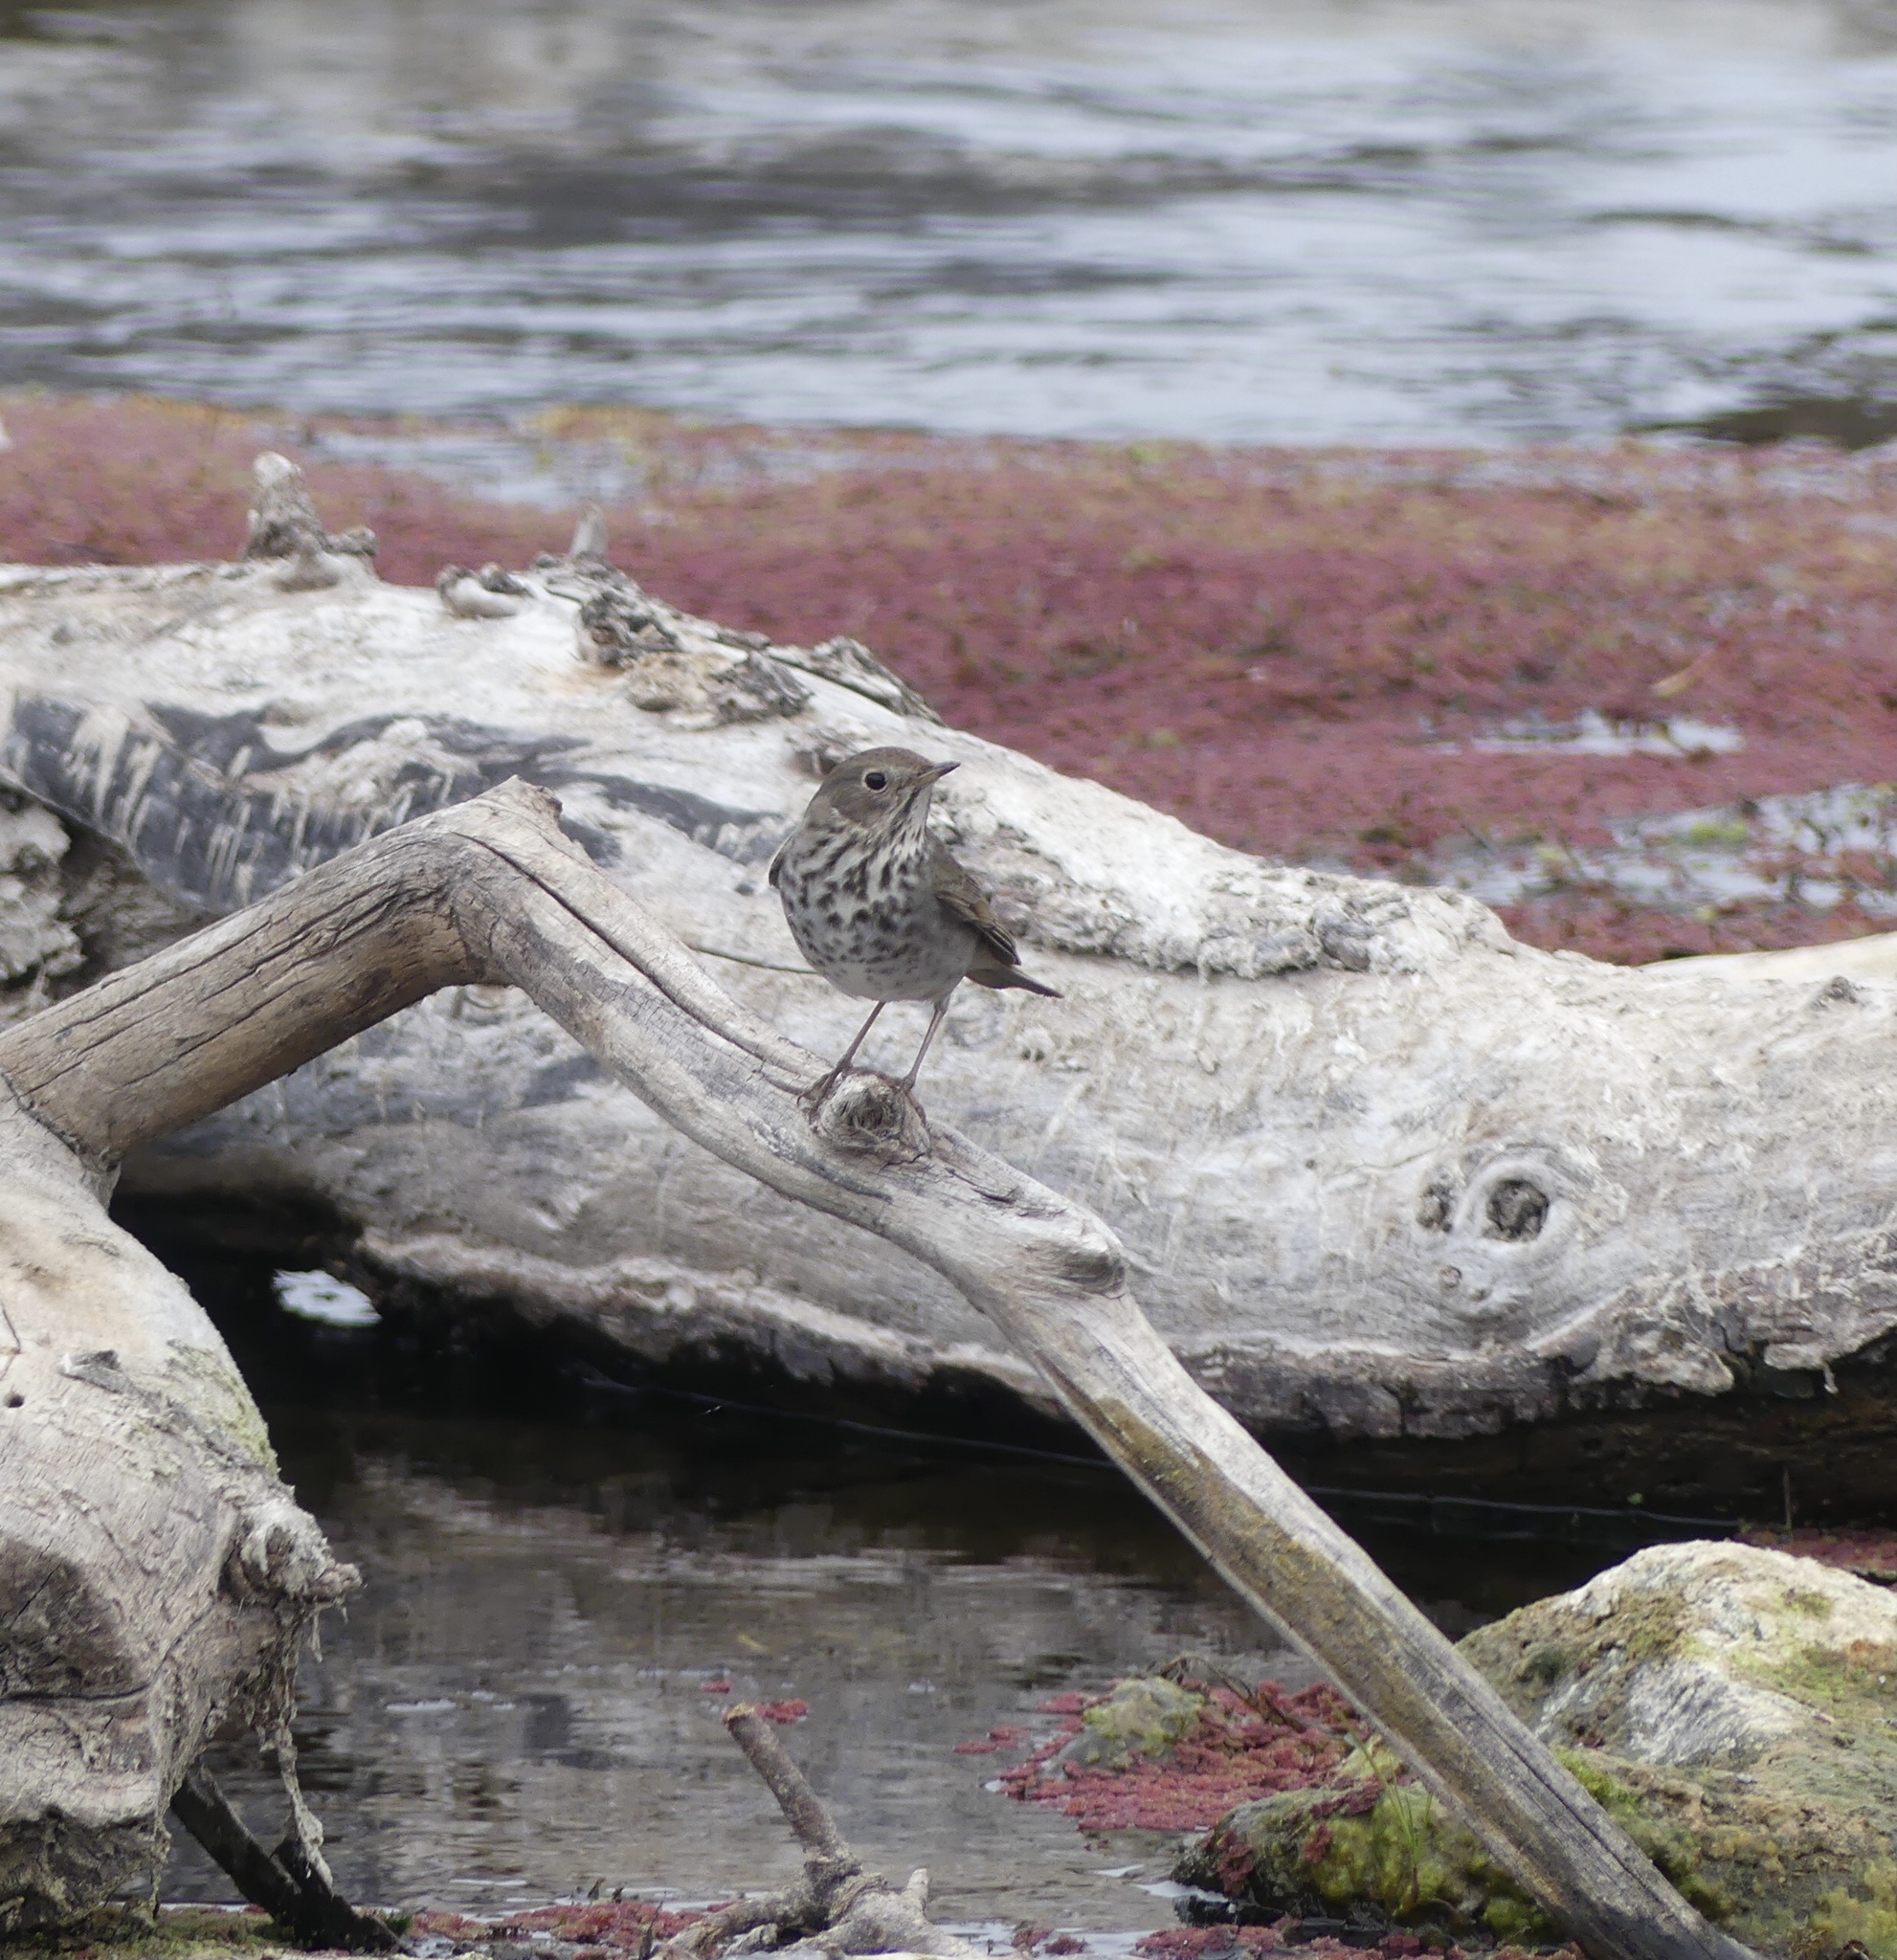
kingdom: Animalia
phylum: Chordata
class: Aves
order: Passeriformes
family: Turdidae
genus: Catharus
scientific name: Catharus guttatus
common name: Hermit thrush
